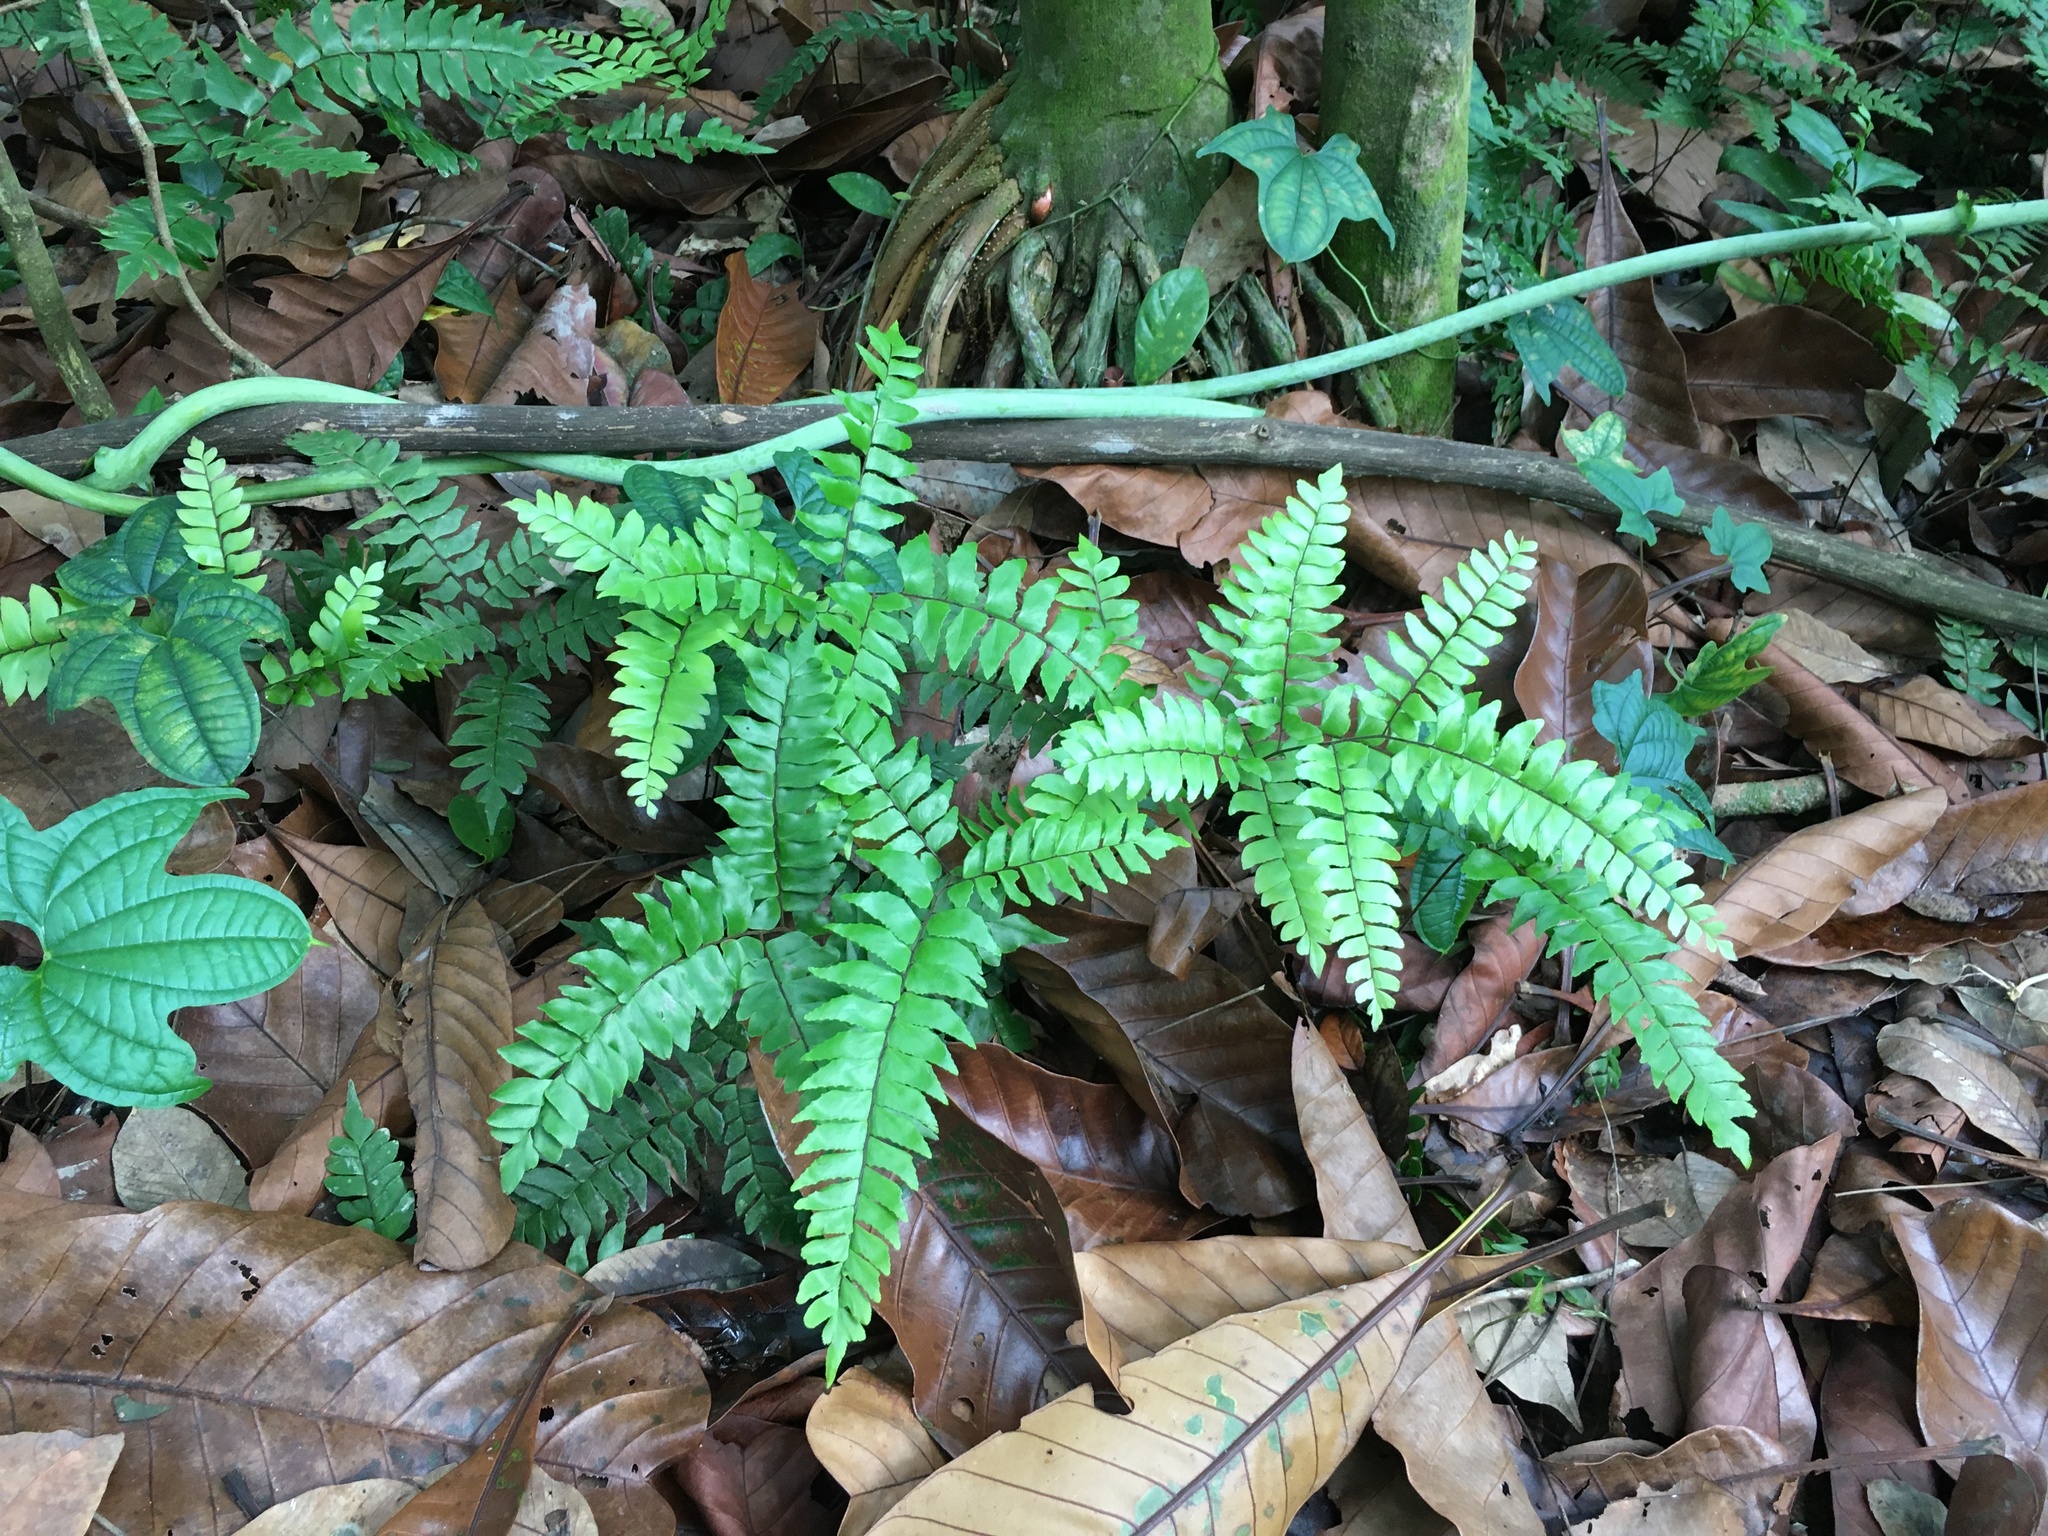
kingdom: Plantae
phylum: Tracheophyta
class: Polypodiopsida
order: Polypodiales
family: Pteridaceae
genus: Adiantum
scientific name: Adiantum latifolium
